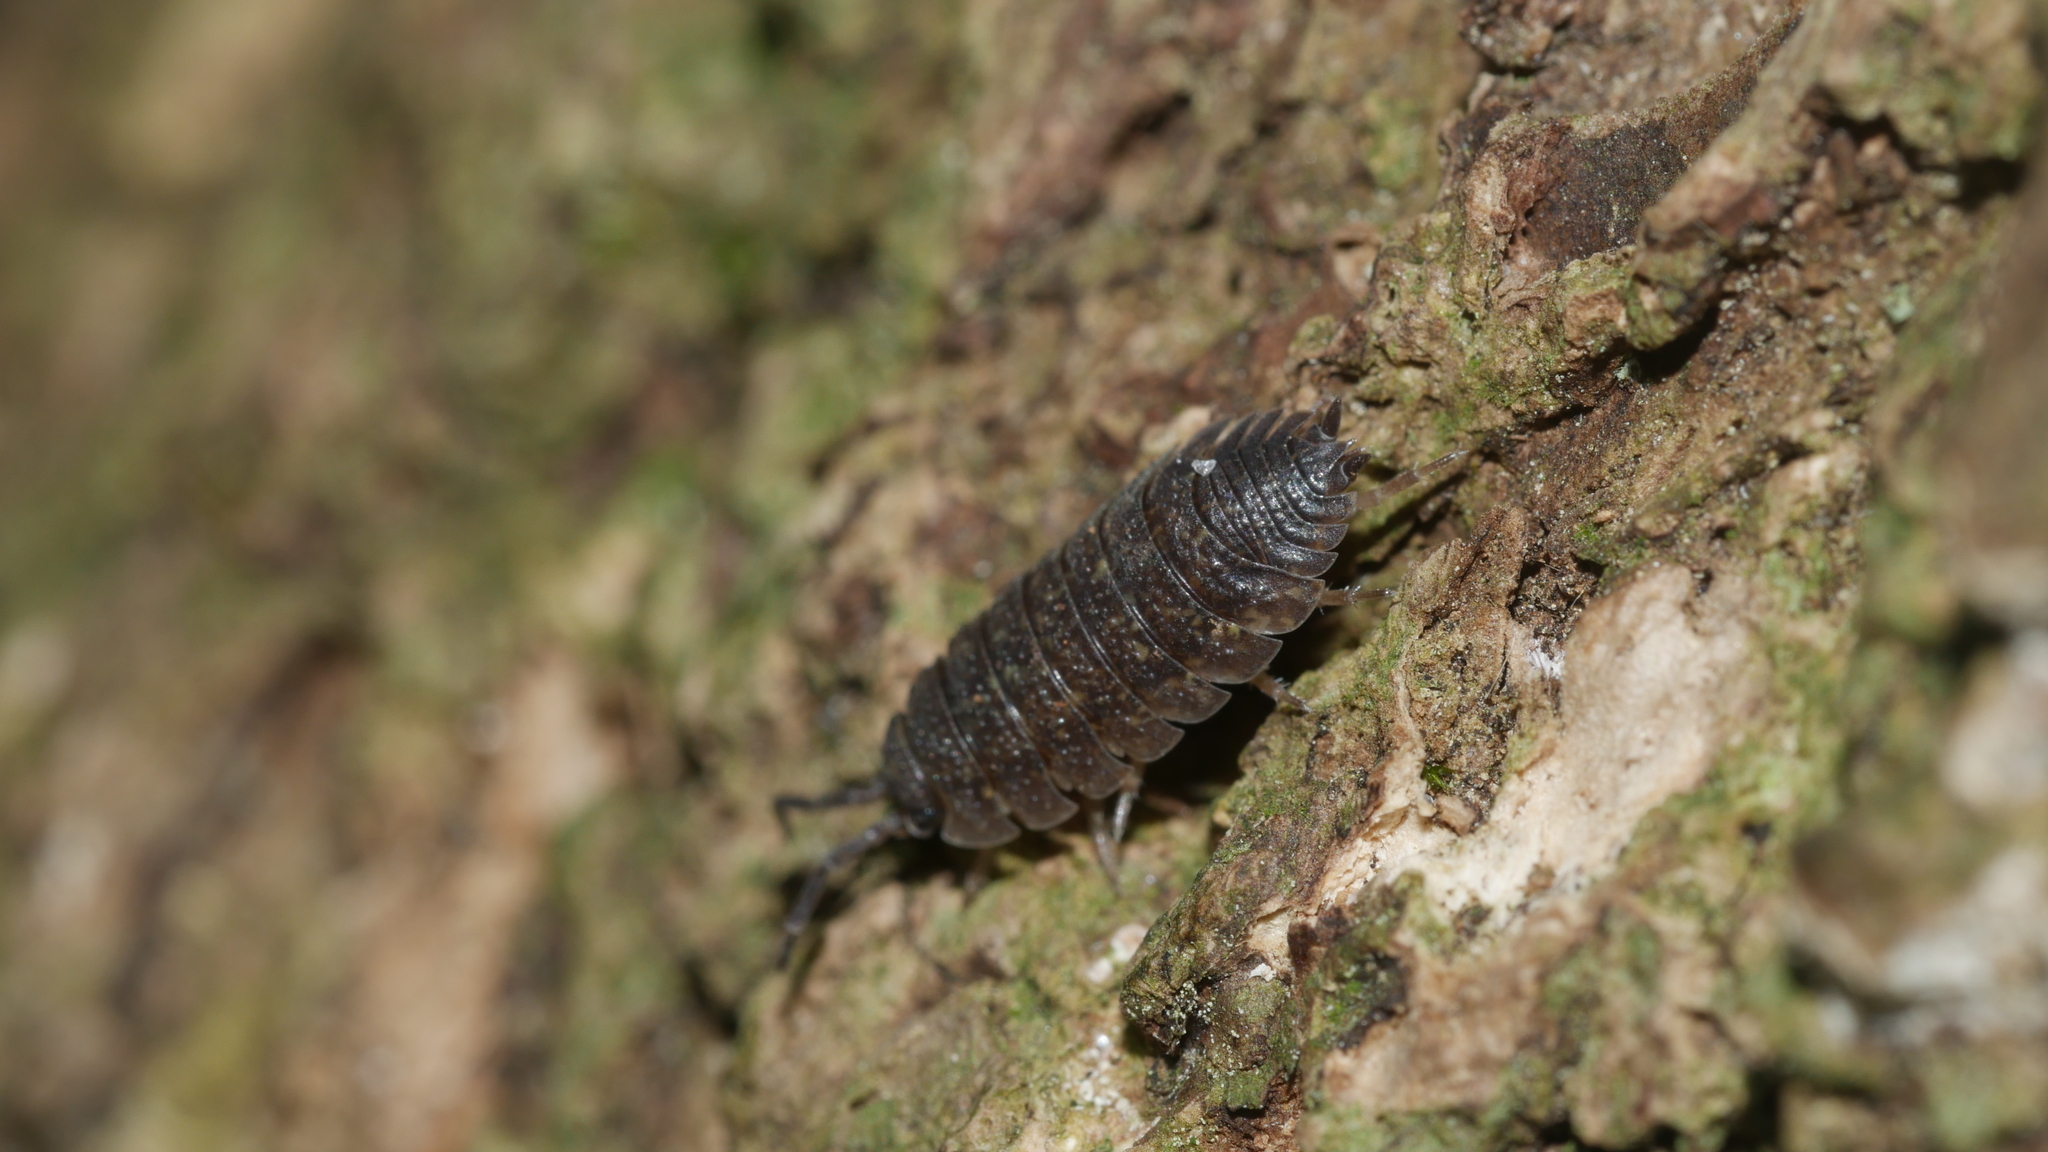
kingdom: Animalia
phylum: Arthropoda
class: Malacostraca
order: Isopoda
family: Porcellionidae
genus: Porcellio
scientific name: Porcellio scaber
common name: Common rough woodlouse
